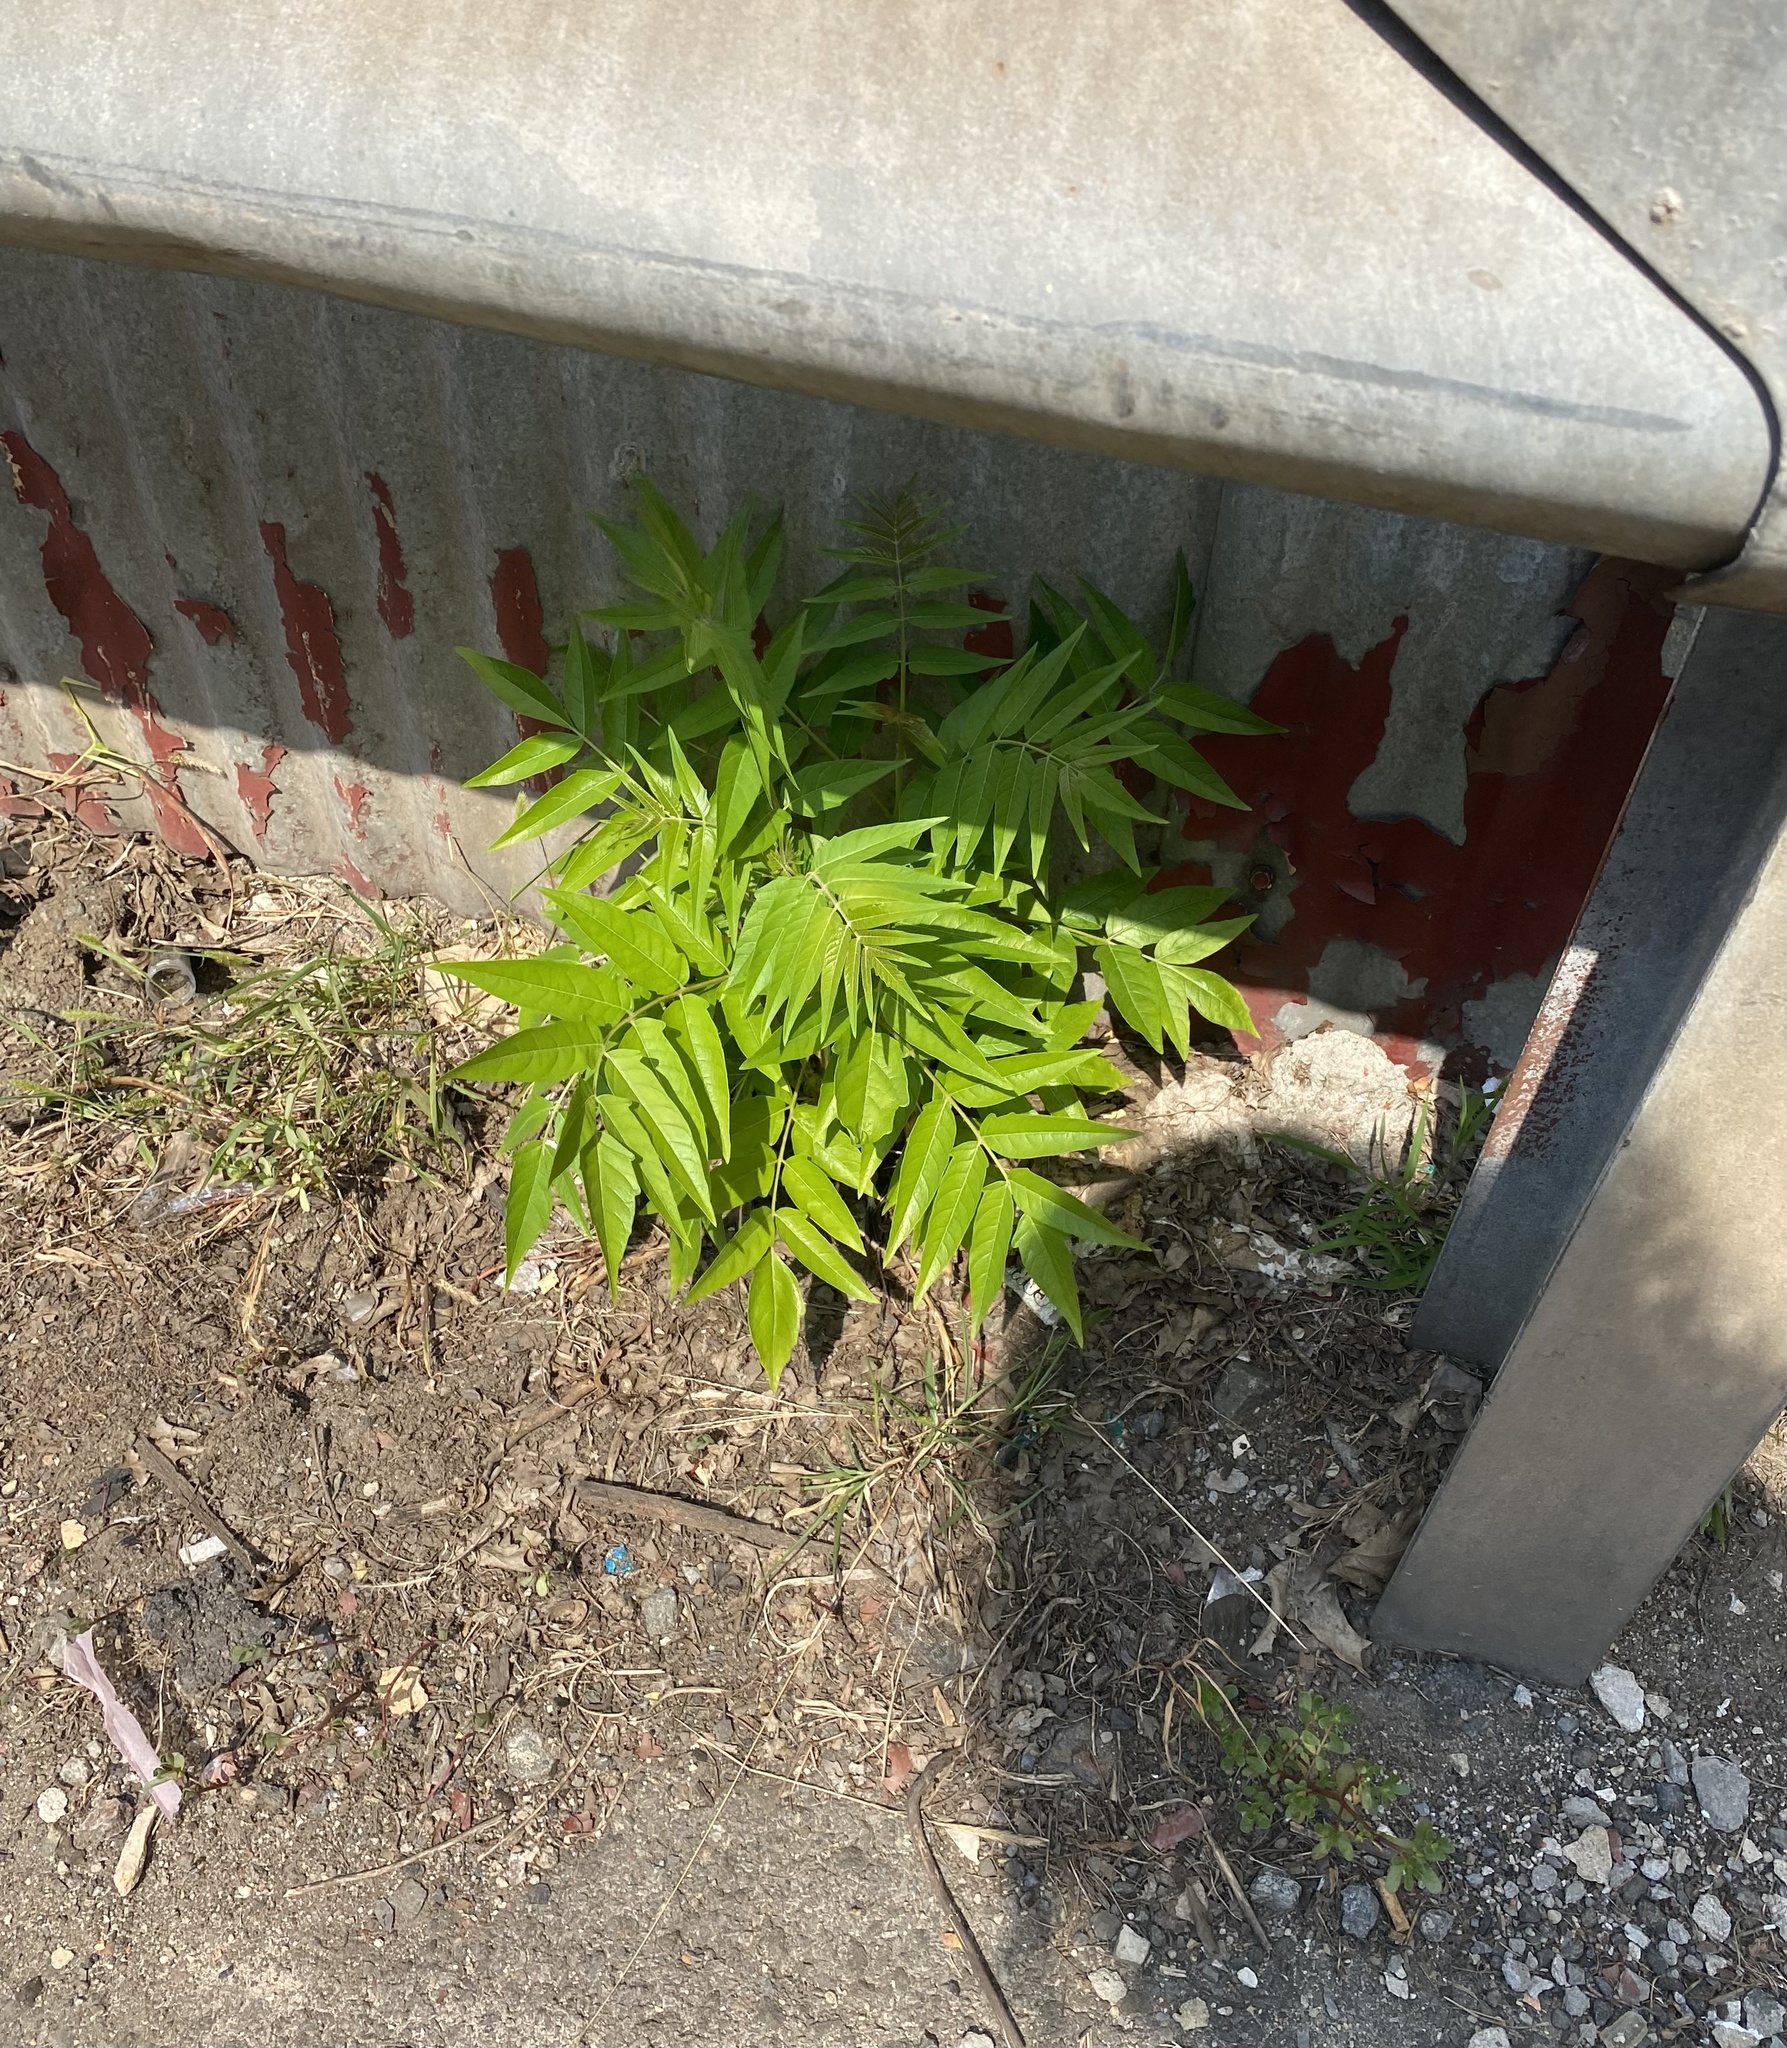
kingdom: Plantae
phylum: Tracheophyta
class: Magnoliopsida
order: Sapindales
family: Simaroubaceae
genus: Ailanthus
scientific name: Ailanthus altissima
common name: Tree-of-heaven
